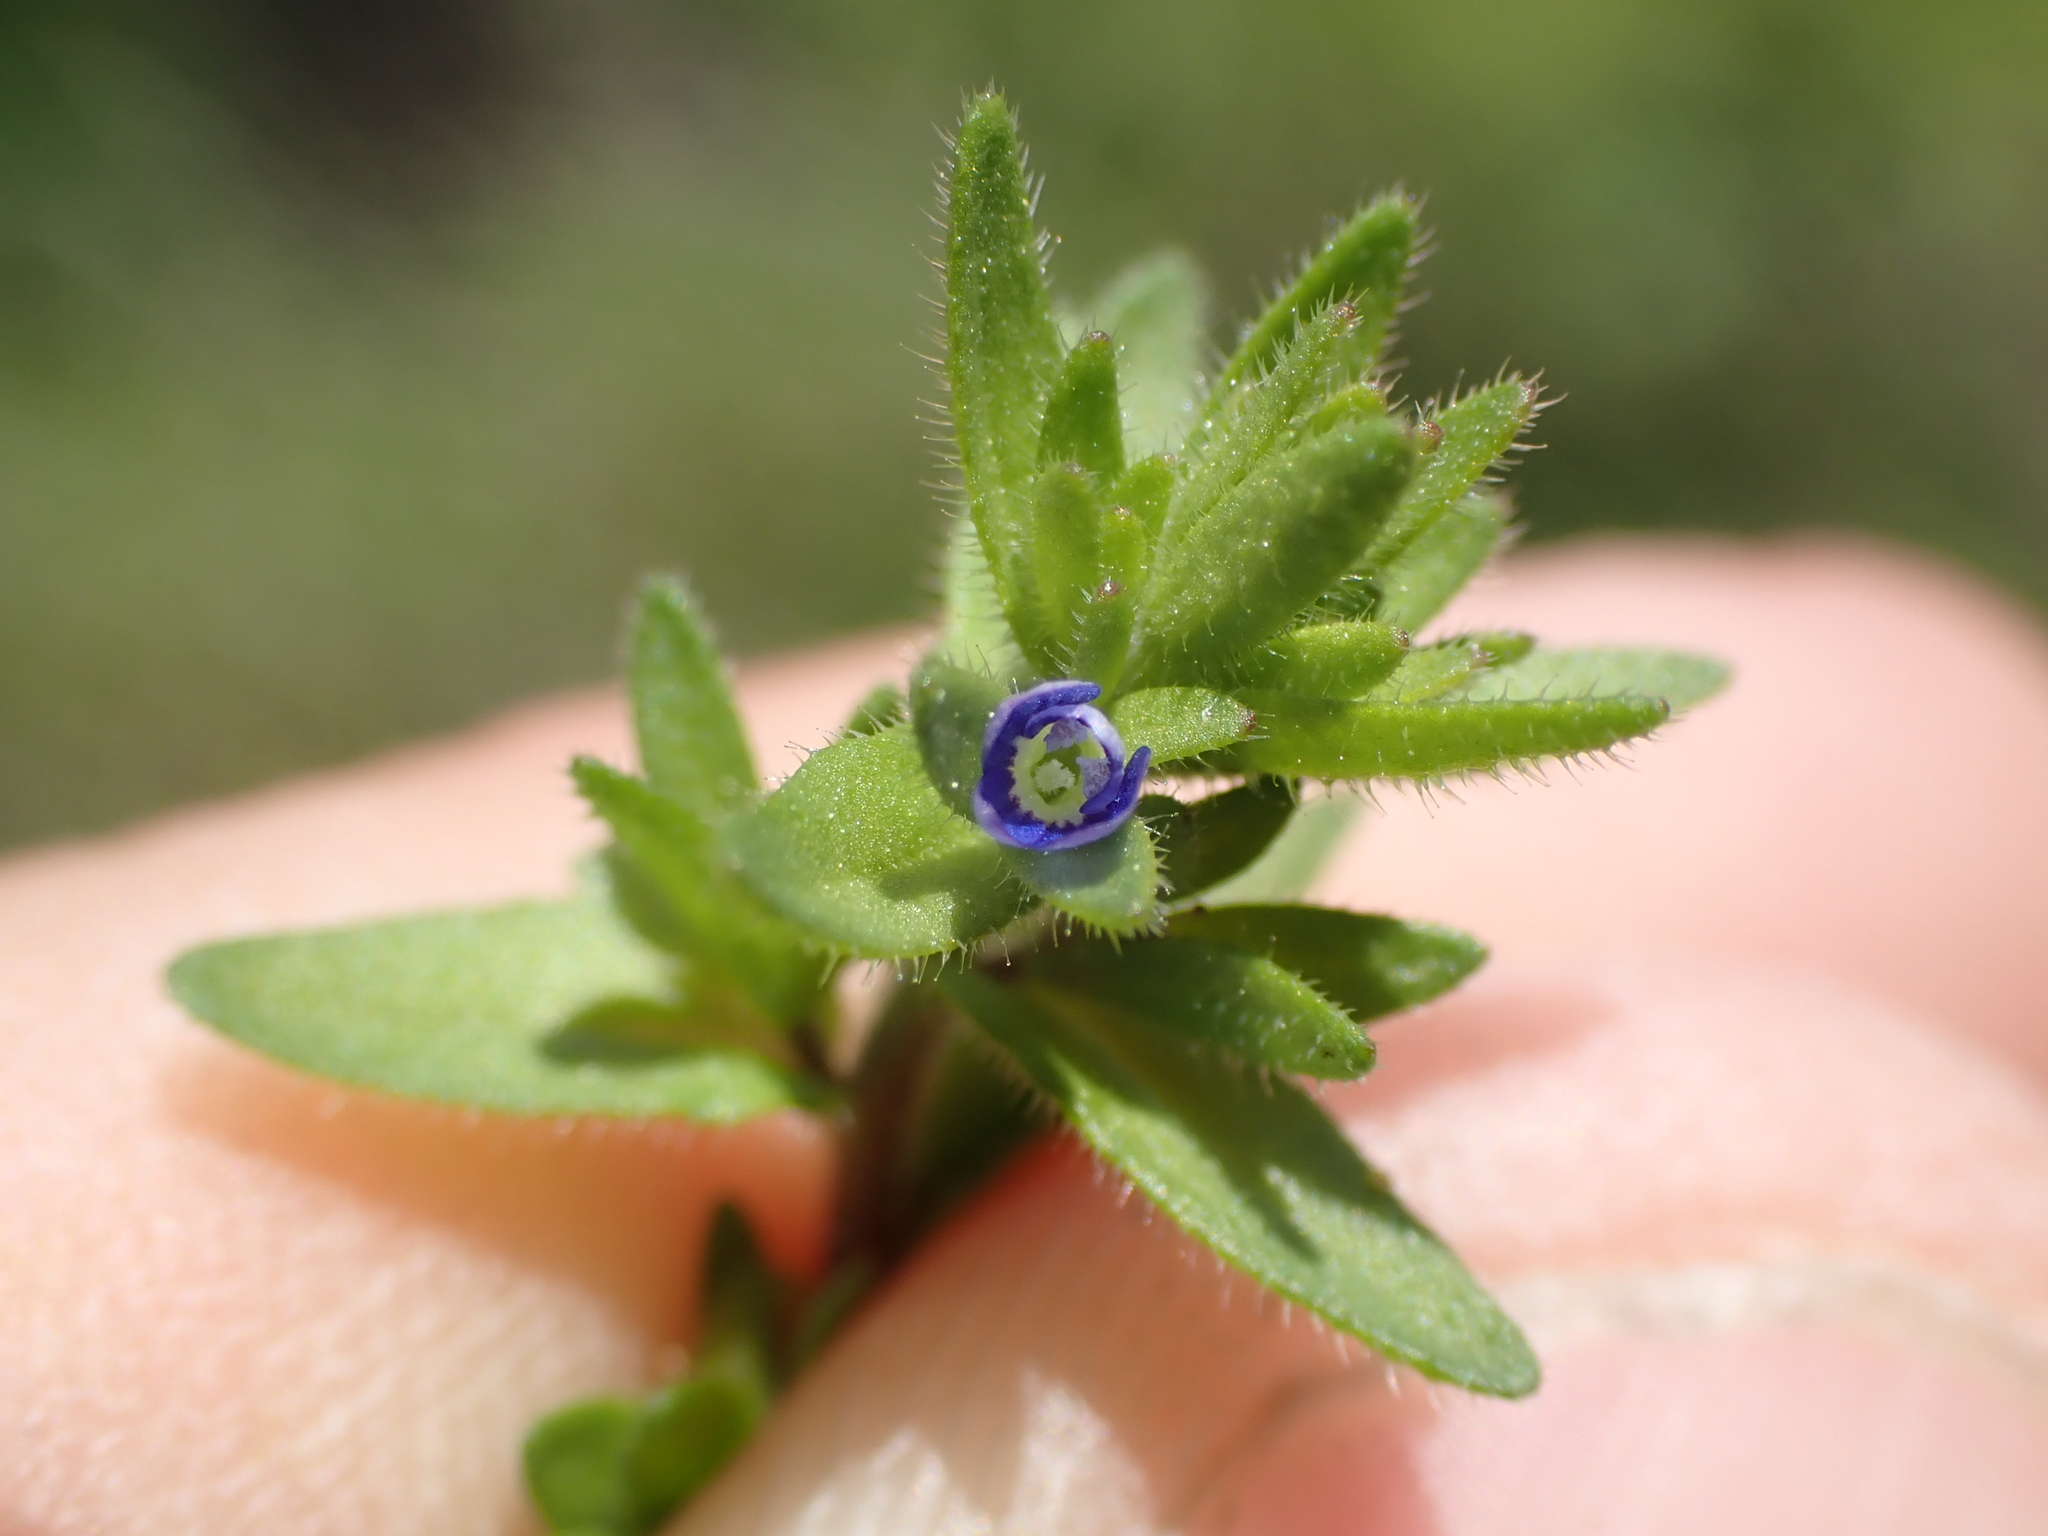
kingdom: Plantae
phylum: Tracheophyta
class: Magnoliopsida
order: Lamiales
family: Plantaginaceae
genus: Veronica
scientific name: Veronica arvensis
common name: Corn speedwell
